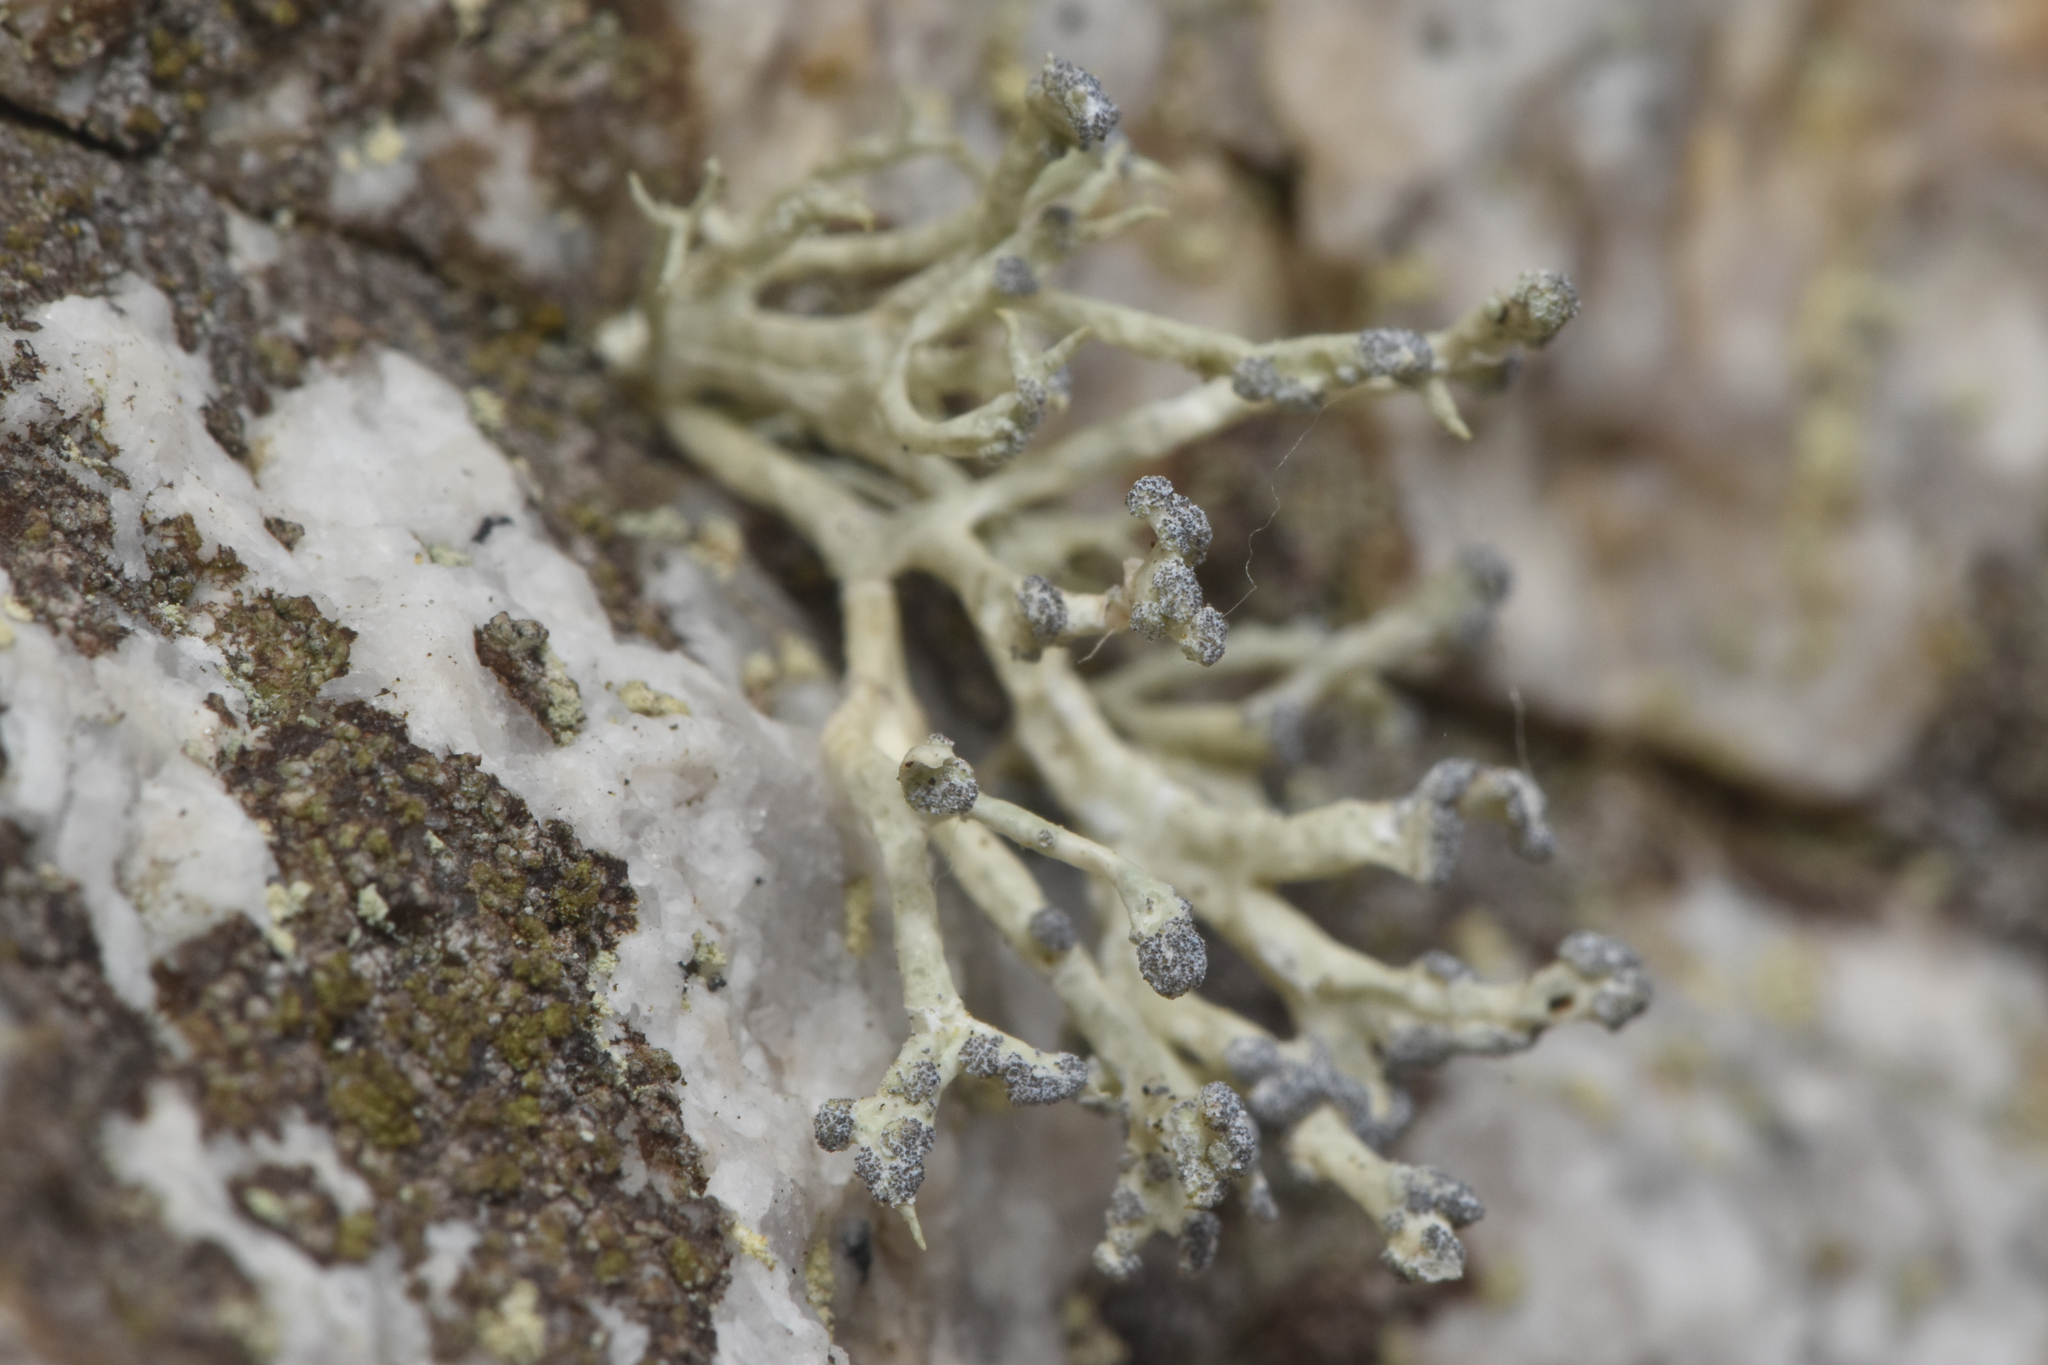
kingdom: Fungi
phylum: Ascomycota
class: Lecanoromycetes
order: Lecanorales
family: Ramalinaceae
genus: Niebla
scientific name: Niebla cephalota
